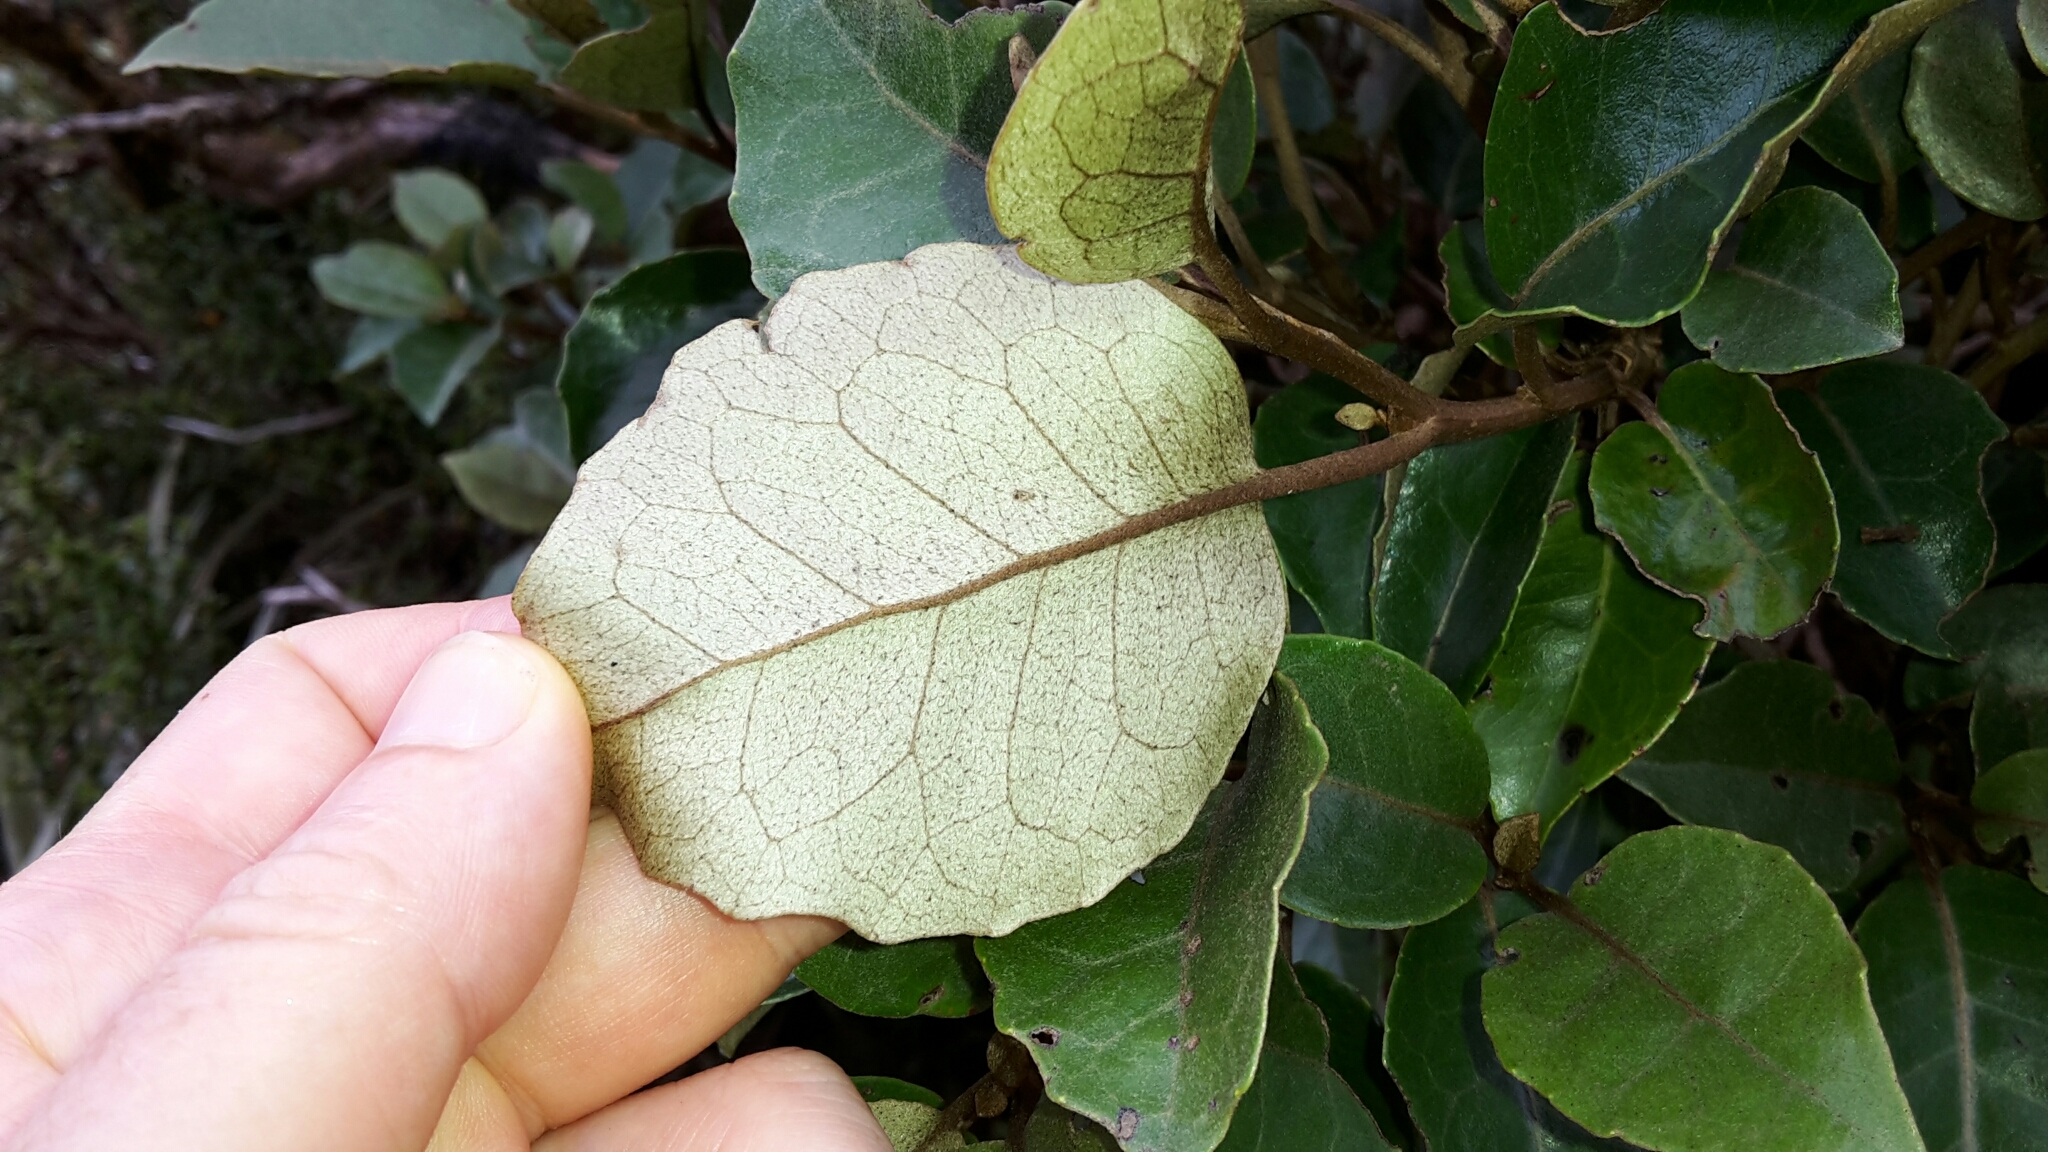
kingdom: Plantae
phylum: Tracheophyta
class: Magnoliopsida
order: Asterales
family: Asteraceae
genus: Olearia
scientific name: Olearia arborescens
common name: Glossy tree daisy
